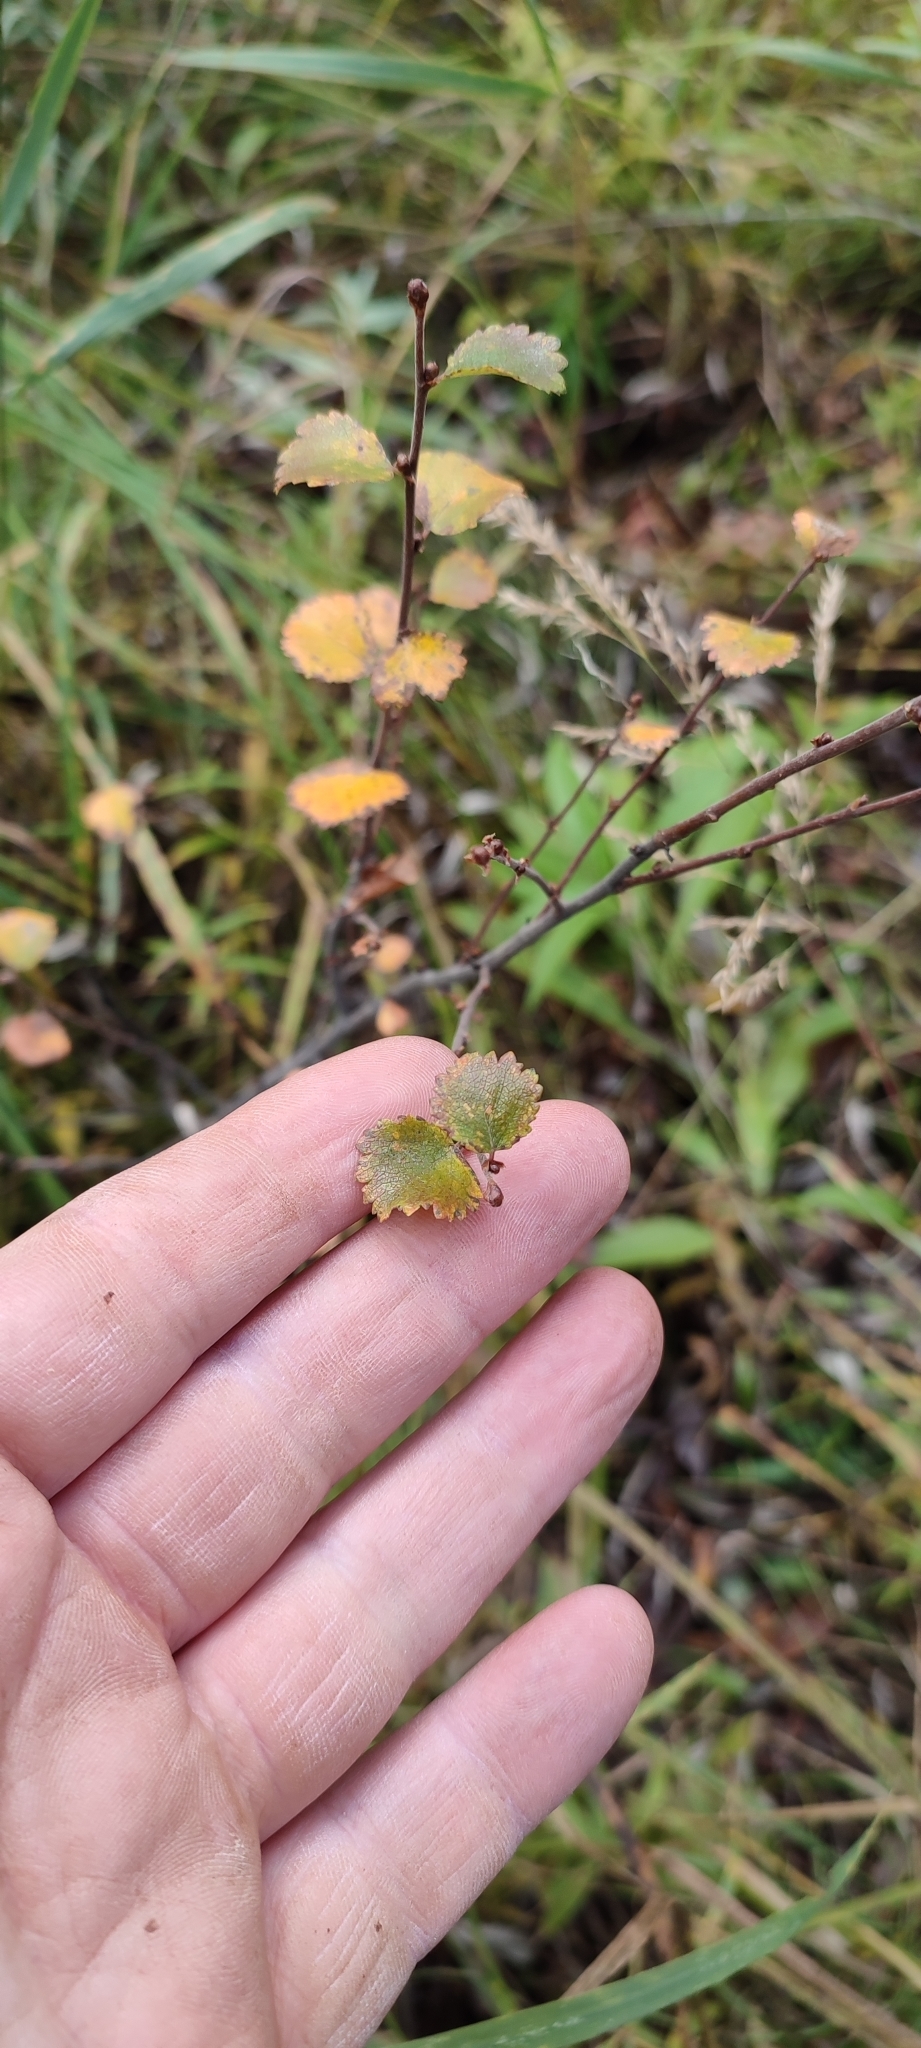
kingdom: Plantae
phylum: Tracheophyta
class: Magnoliopsida
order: Fagales
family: Betulaceae
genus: Betula
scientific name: Betula nana
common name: Arctic dwarf birch
